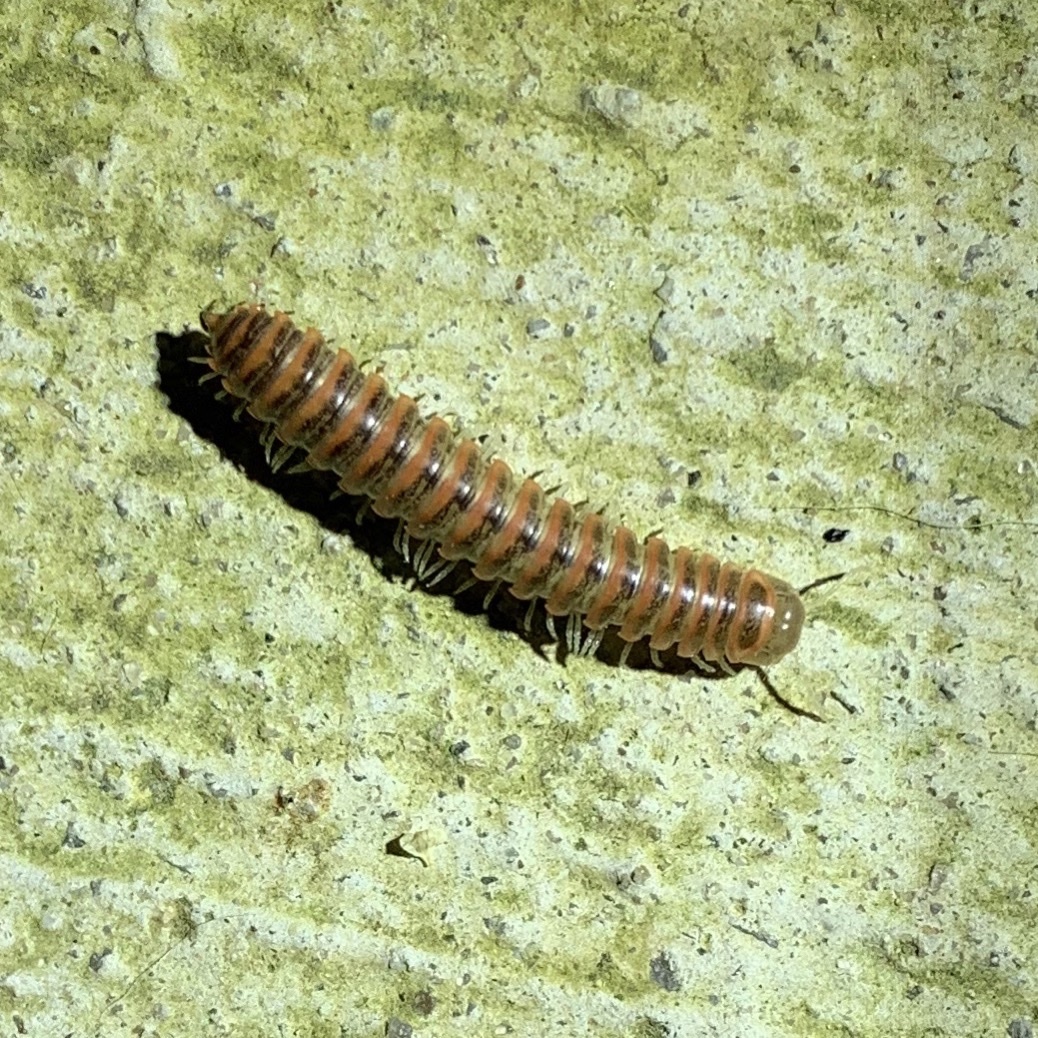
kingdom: Animalia
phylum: Arthropoda
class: Diplopoda
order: Polydesmida
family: Xystodesmidae
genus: Oenomaea
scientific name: Oenomaea pulchella
